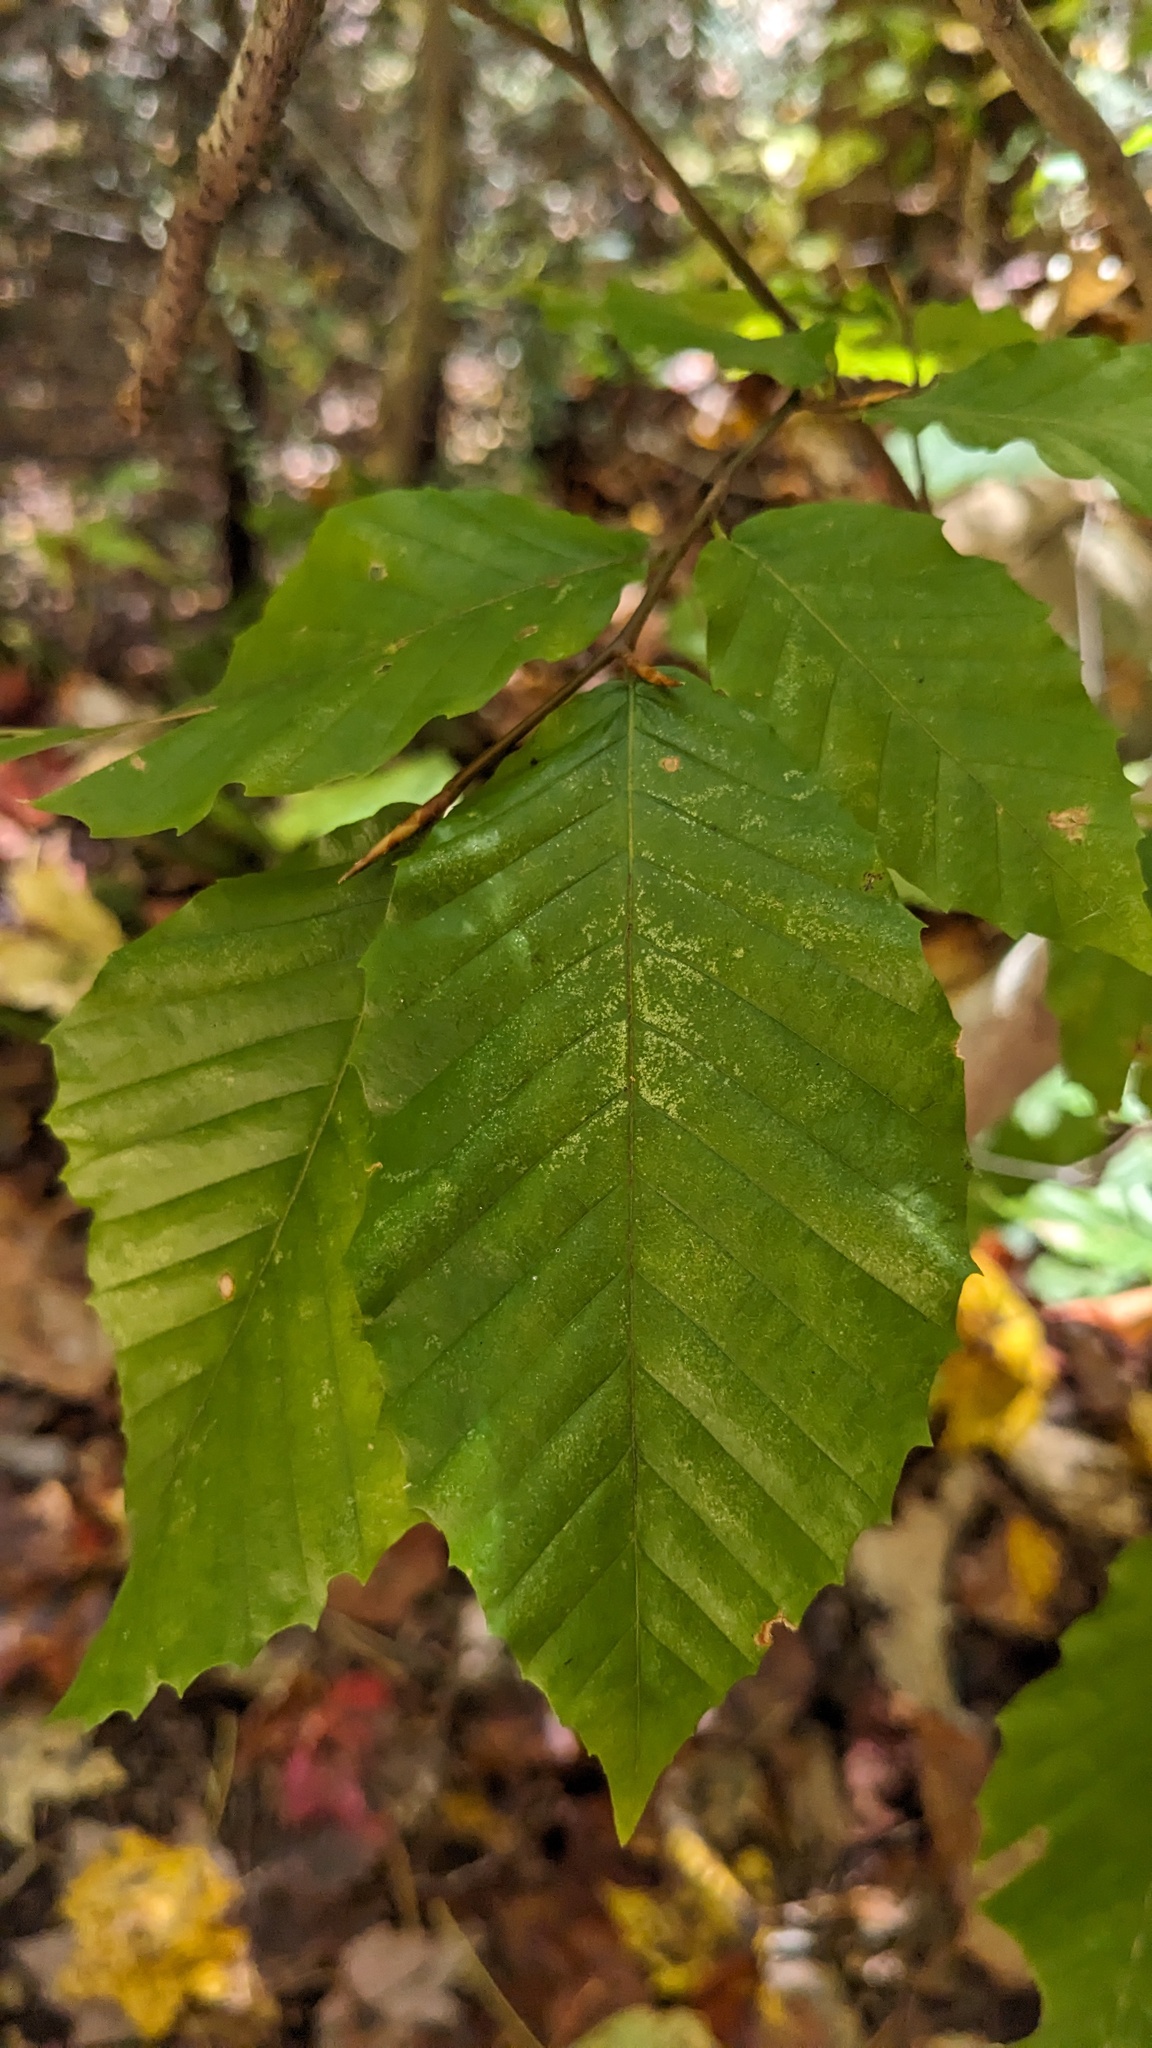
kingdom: Plantae
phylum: Tracheophyta
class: Magnoliopsida
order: Fagales
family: Fagaceae
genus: Fagus
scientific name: Fagus grandifolia
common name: American beech
